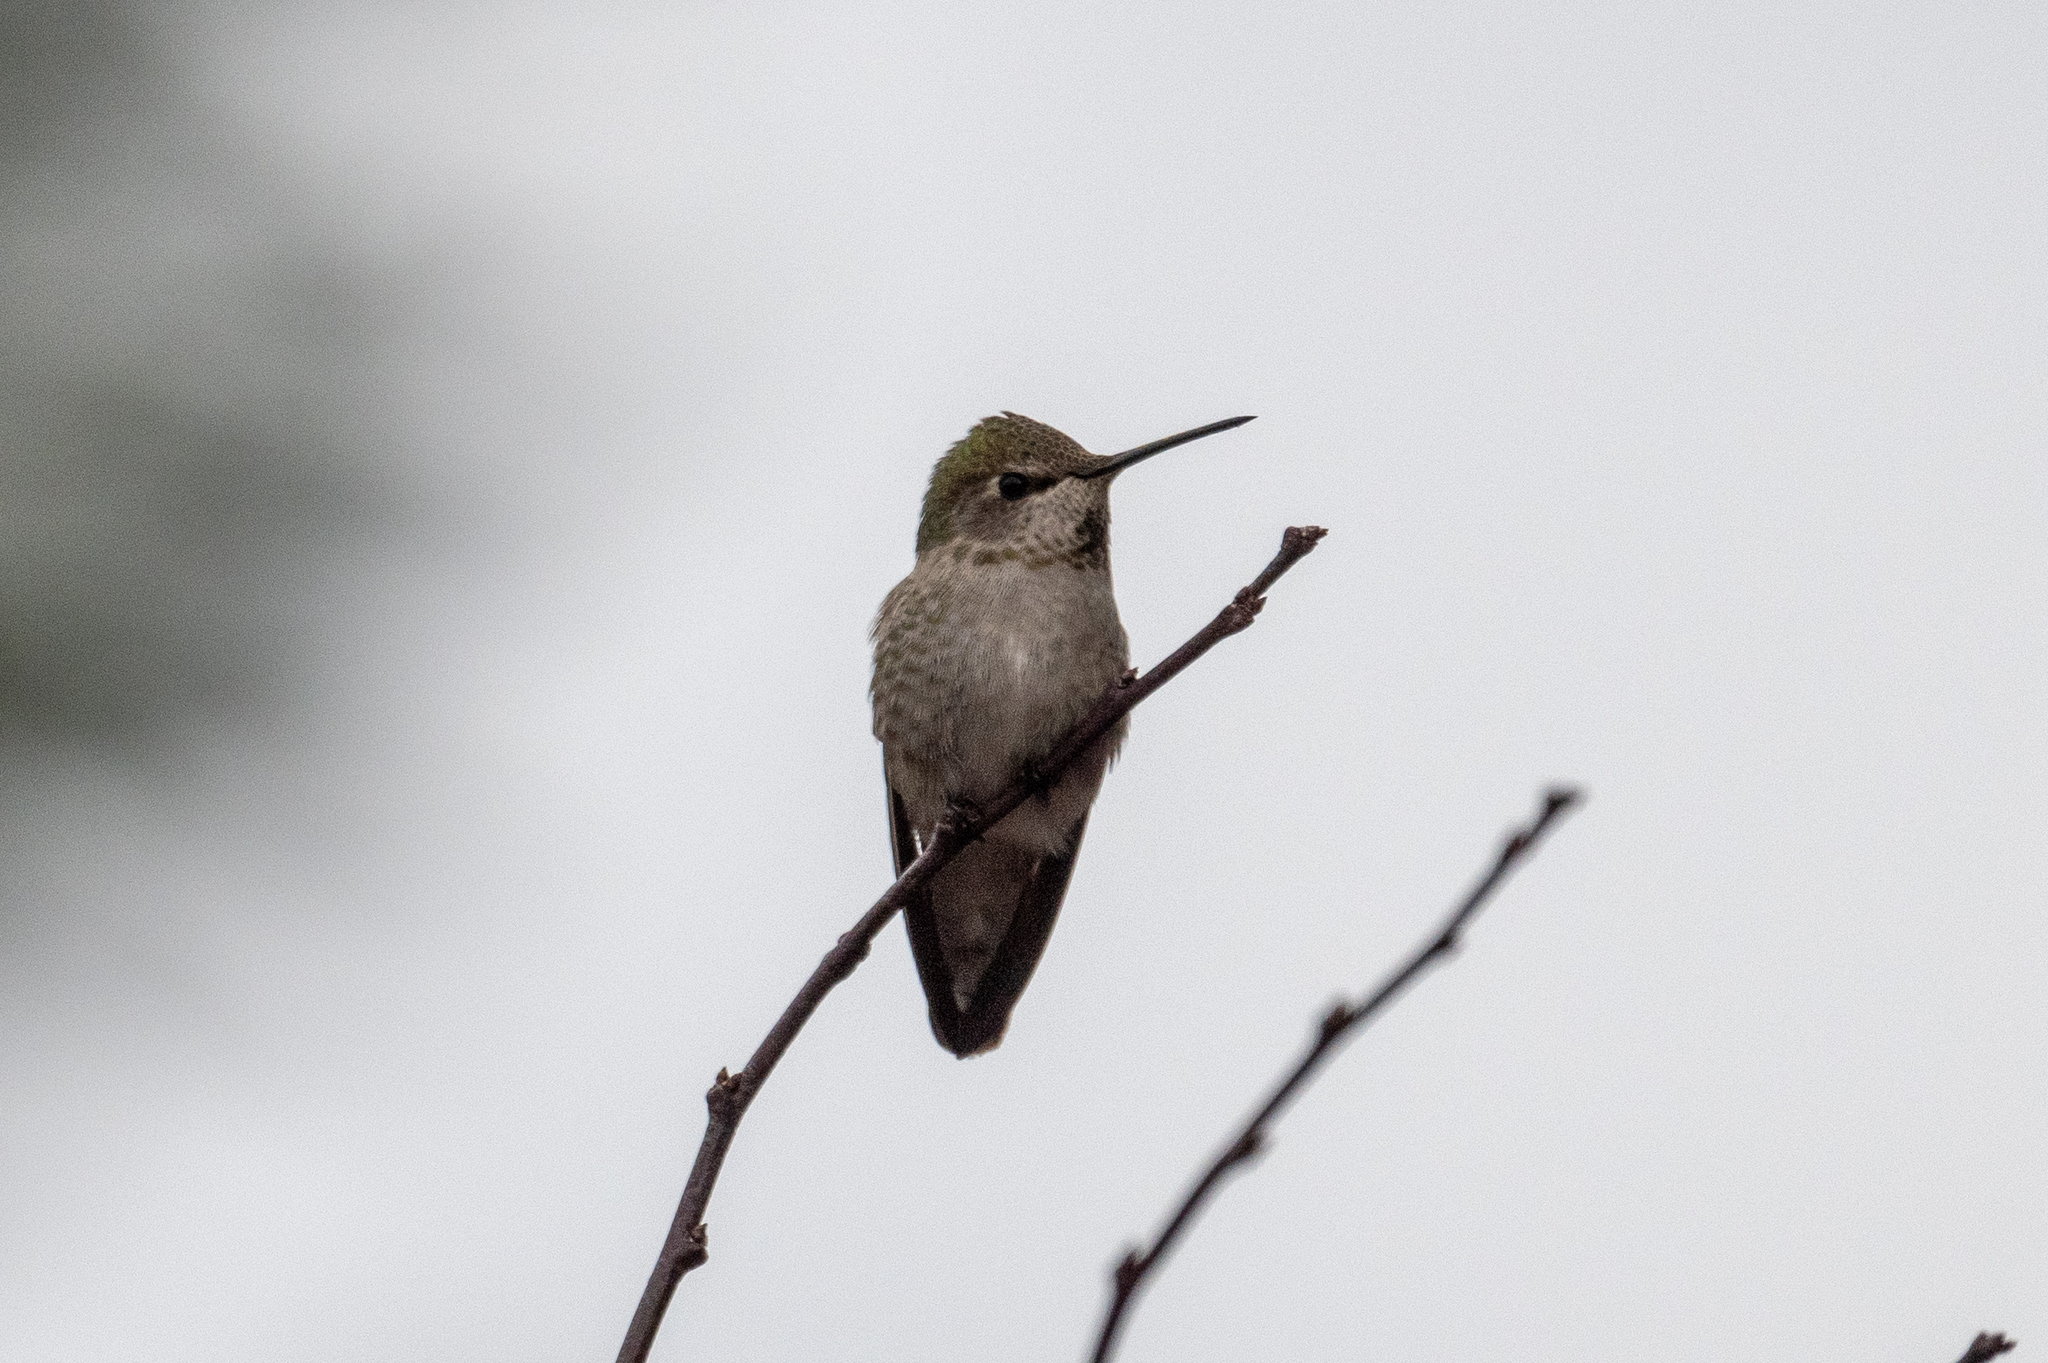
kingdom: Animalia
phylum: Chordata
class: Aves
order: Apodiformes
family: Trochilidae
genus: Calypte
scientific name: Calypte anna
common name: Anna's hummingbird
